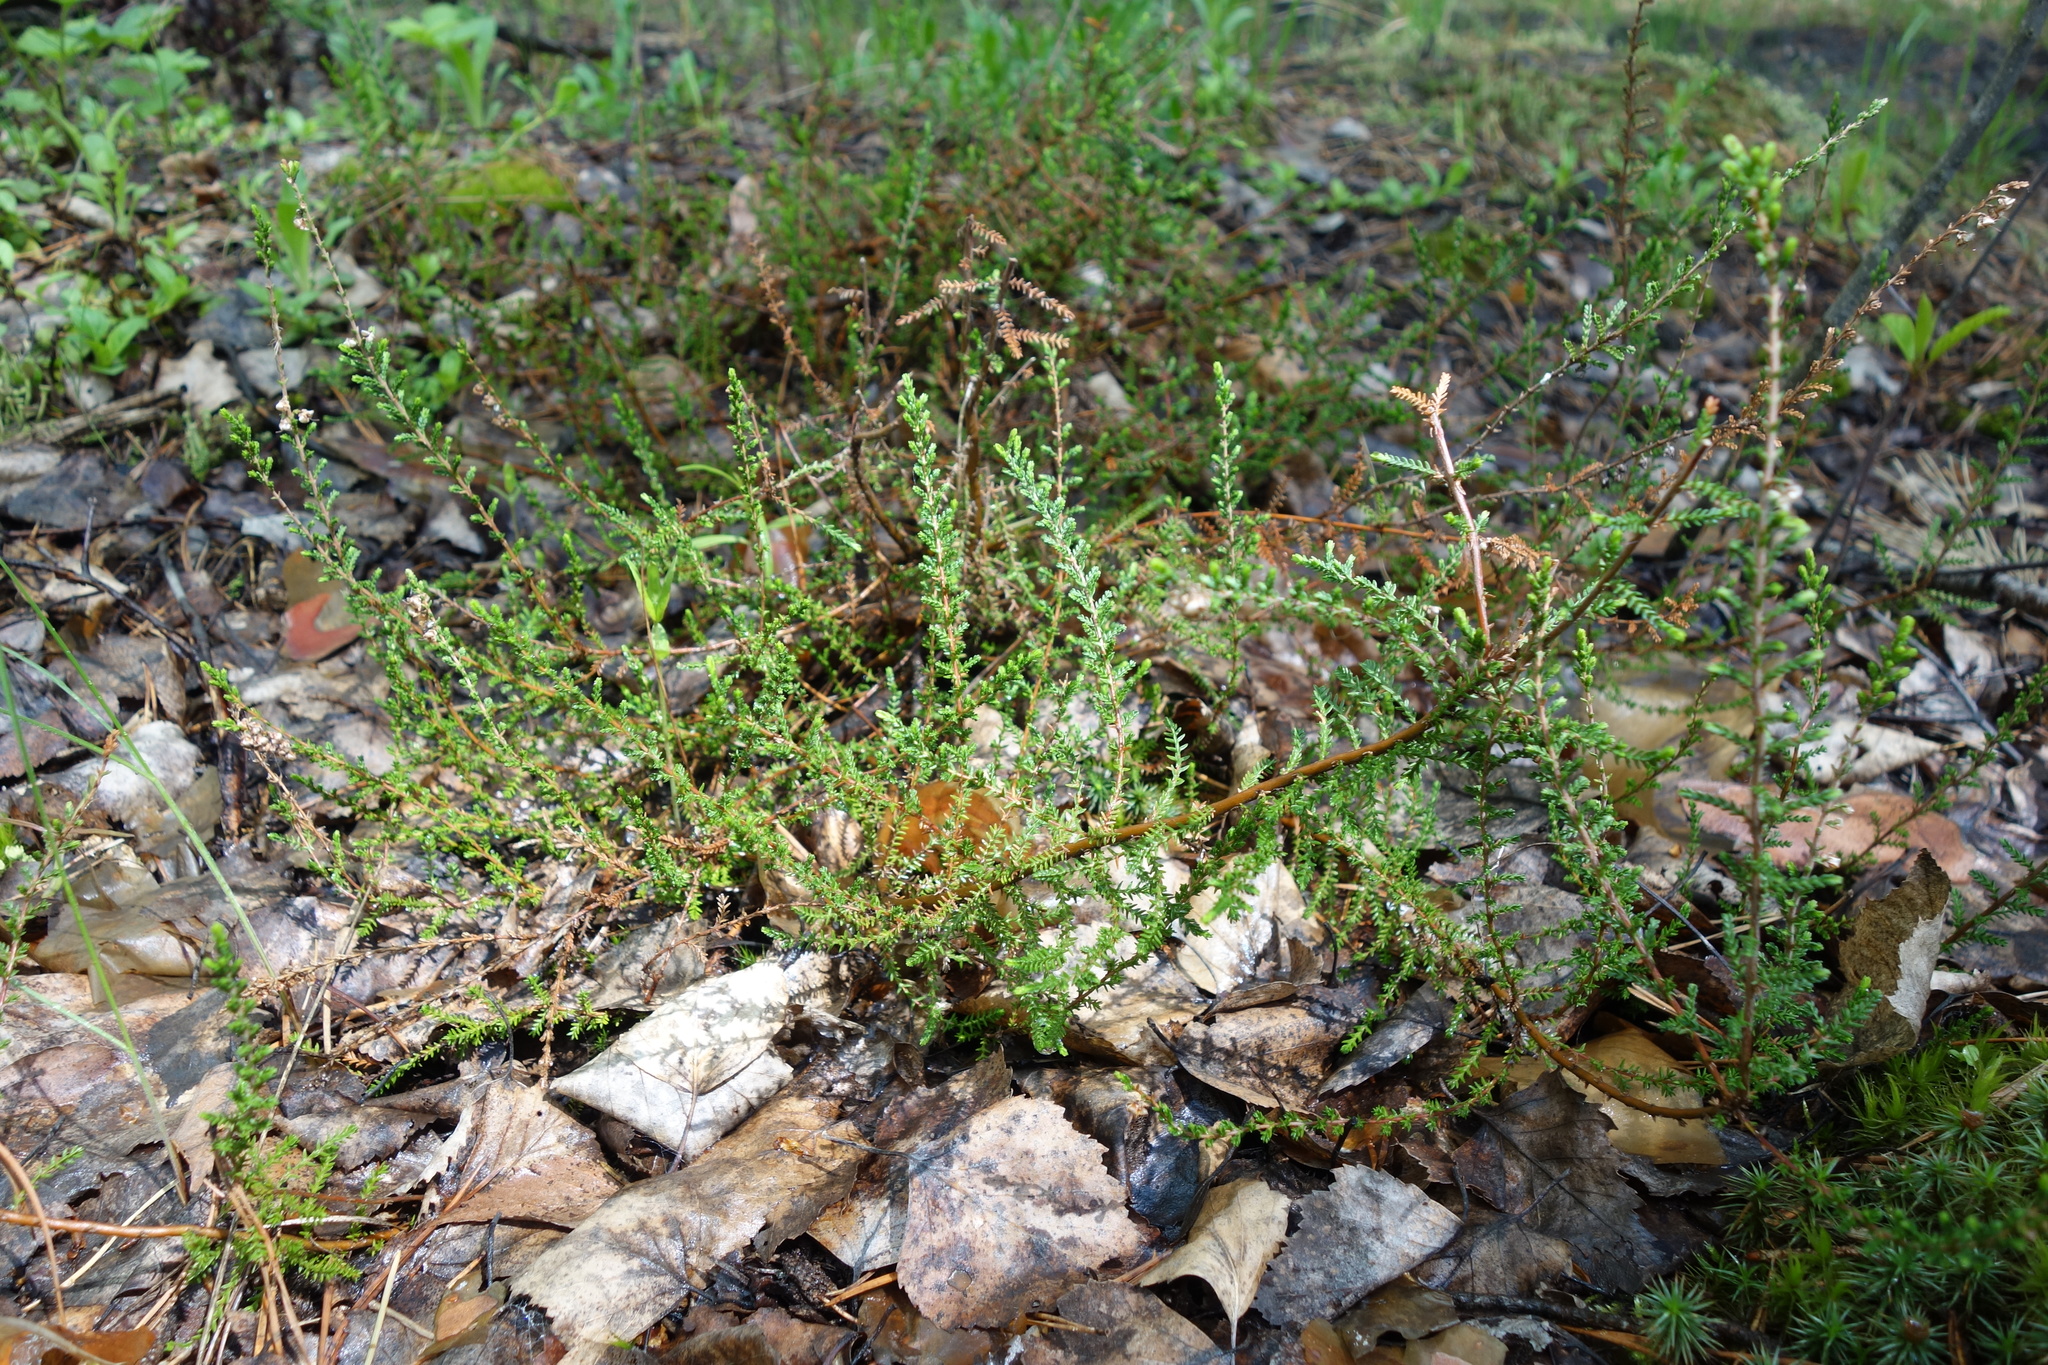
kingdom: Plantae
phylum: Tracheophyta
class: Magnoliopsida
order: Ericales
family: Ericaceae
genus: Calluna
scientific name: Calluna vulgaris
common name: Heather
